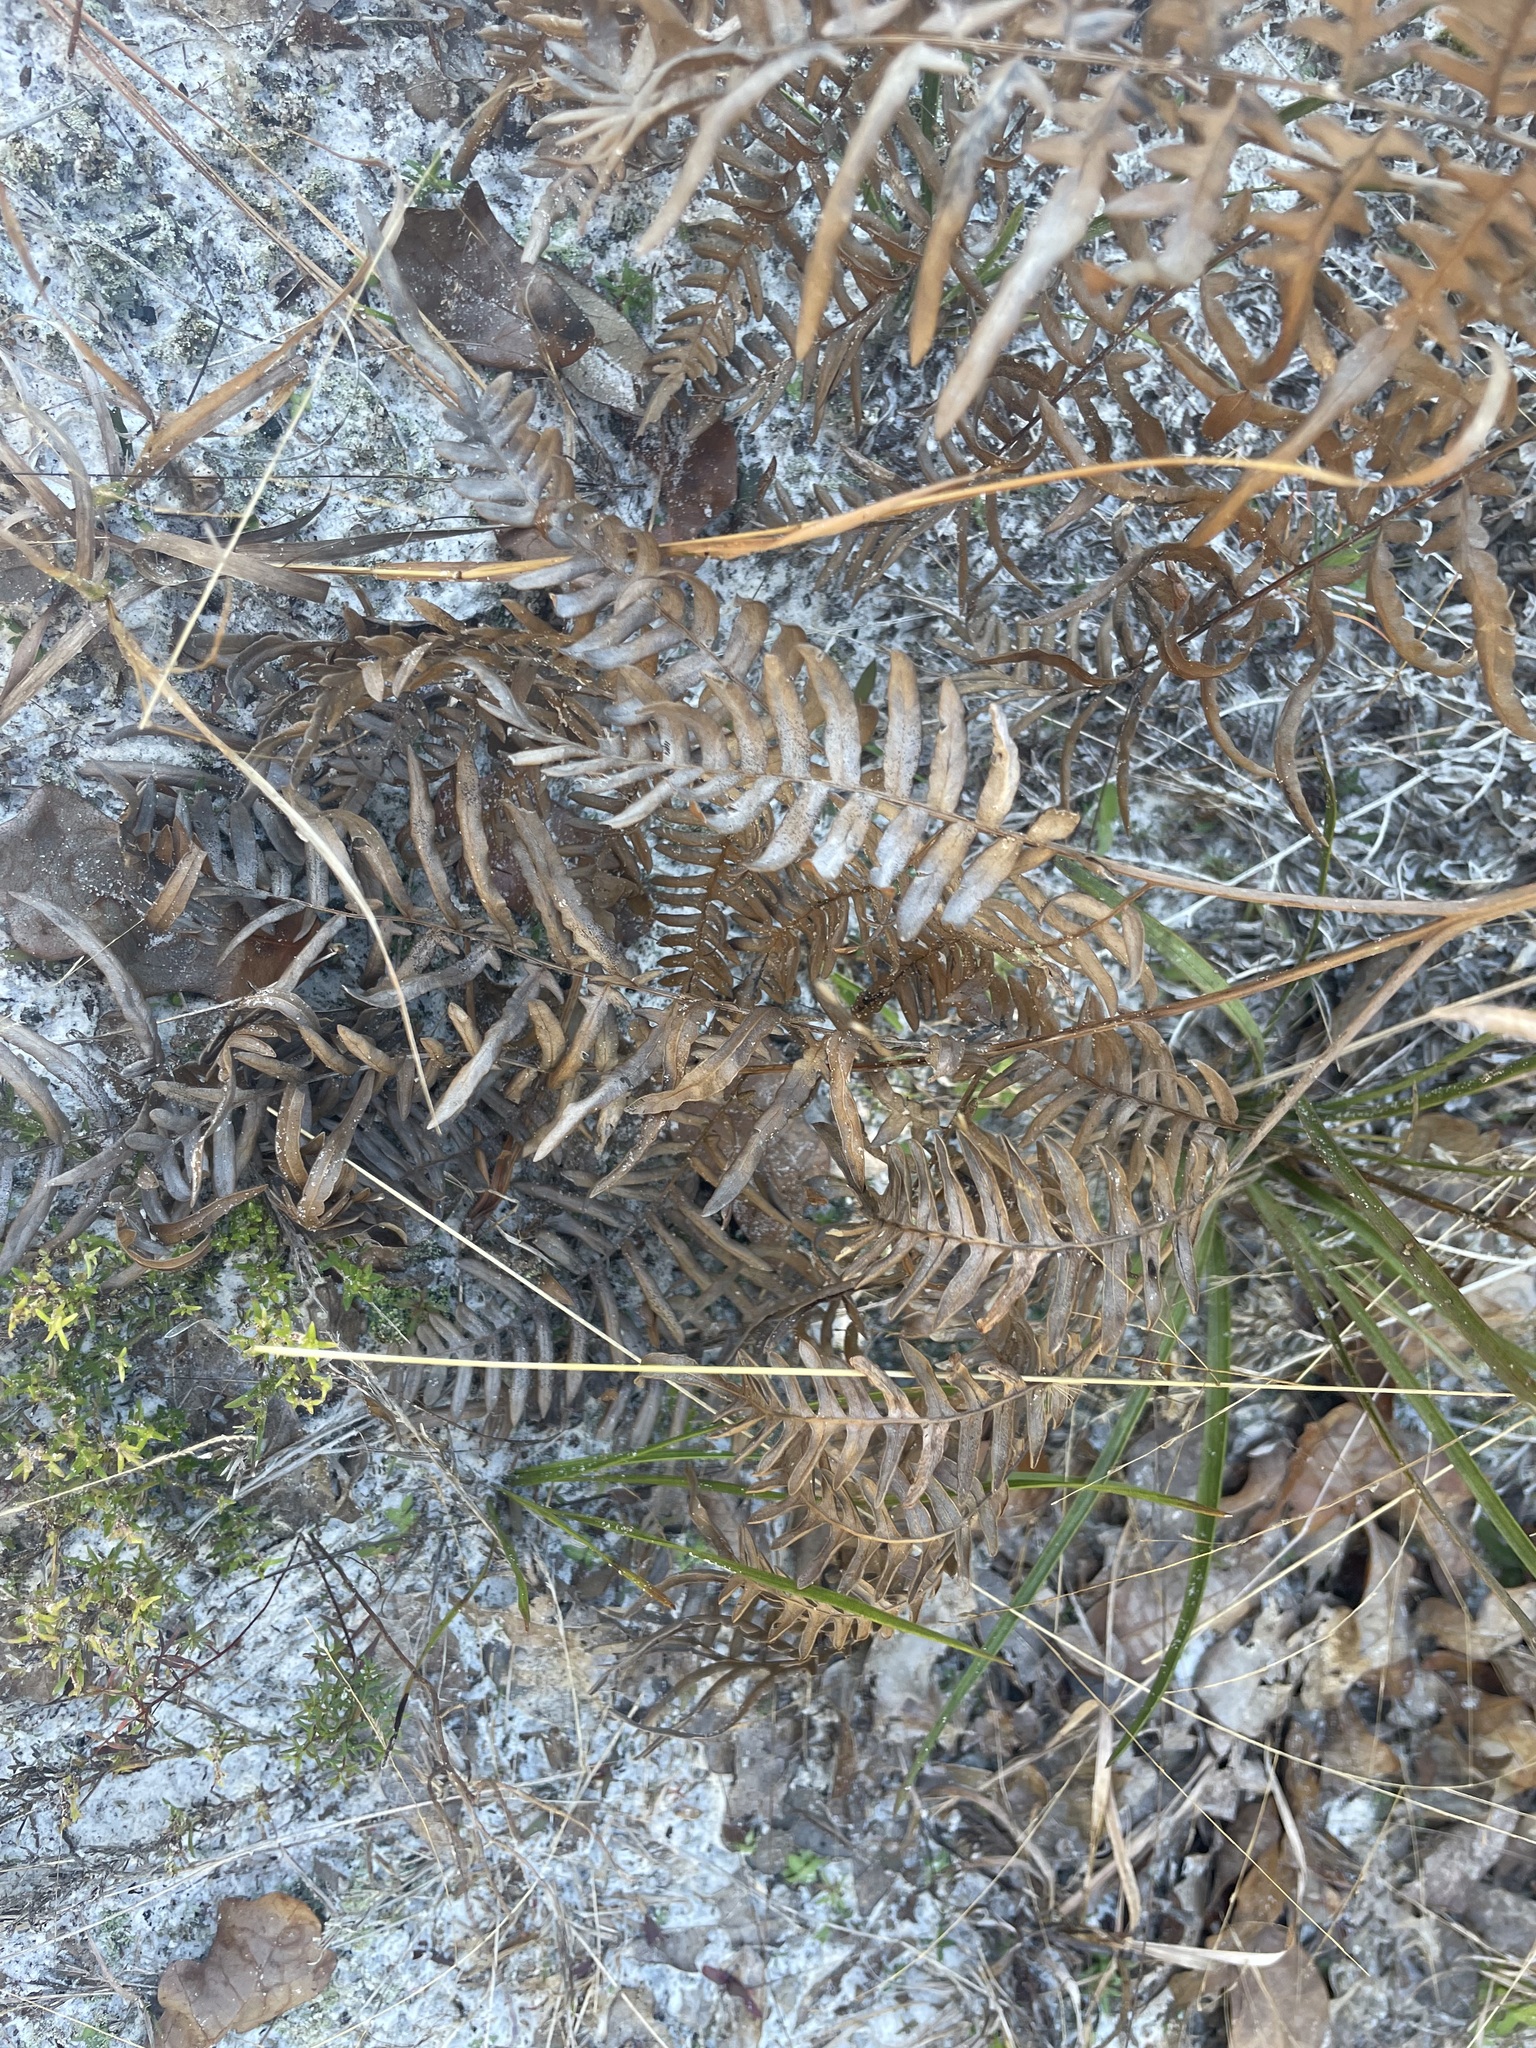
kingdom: Plantae
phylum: Tracheophyta
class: Polypodiopsida
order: Polypodiales
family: Dennstaedtiaceae
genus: Pteridium
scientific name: Pteridium
